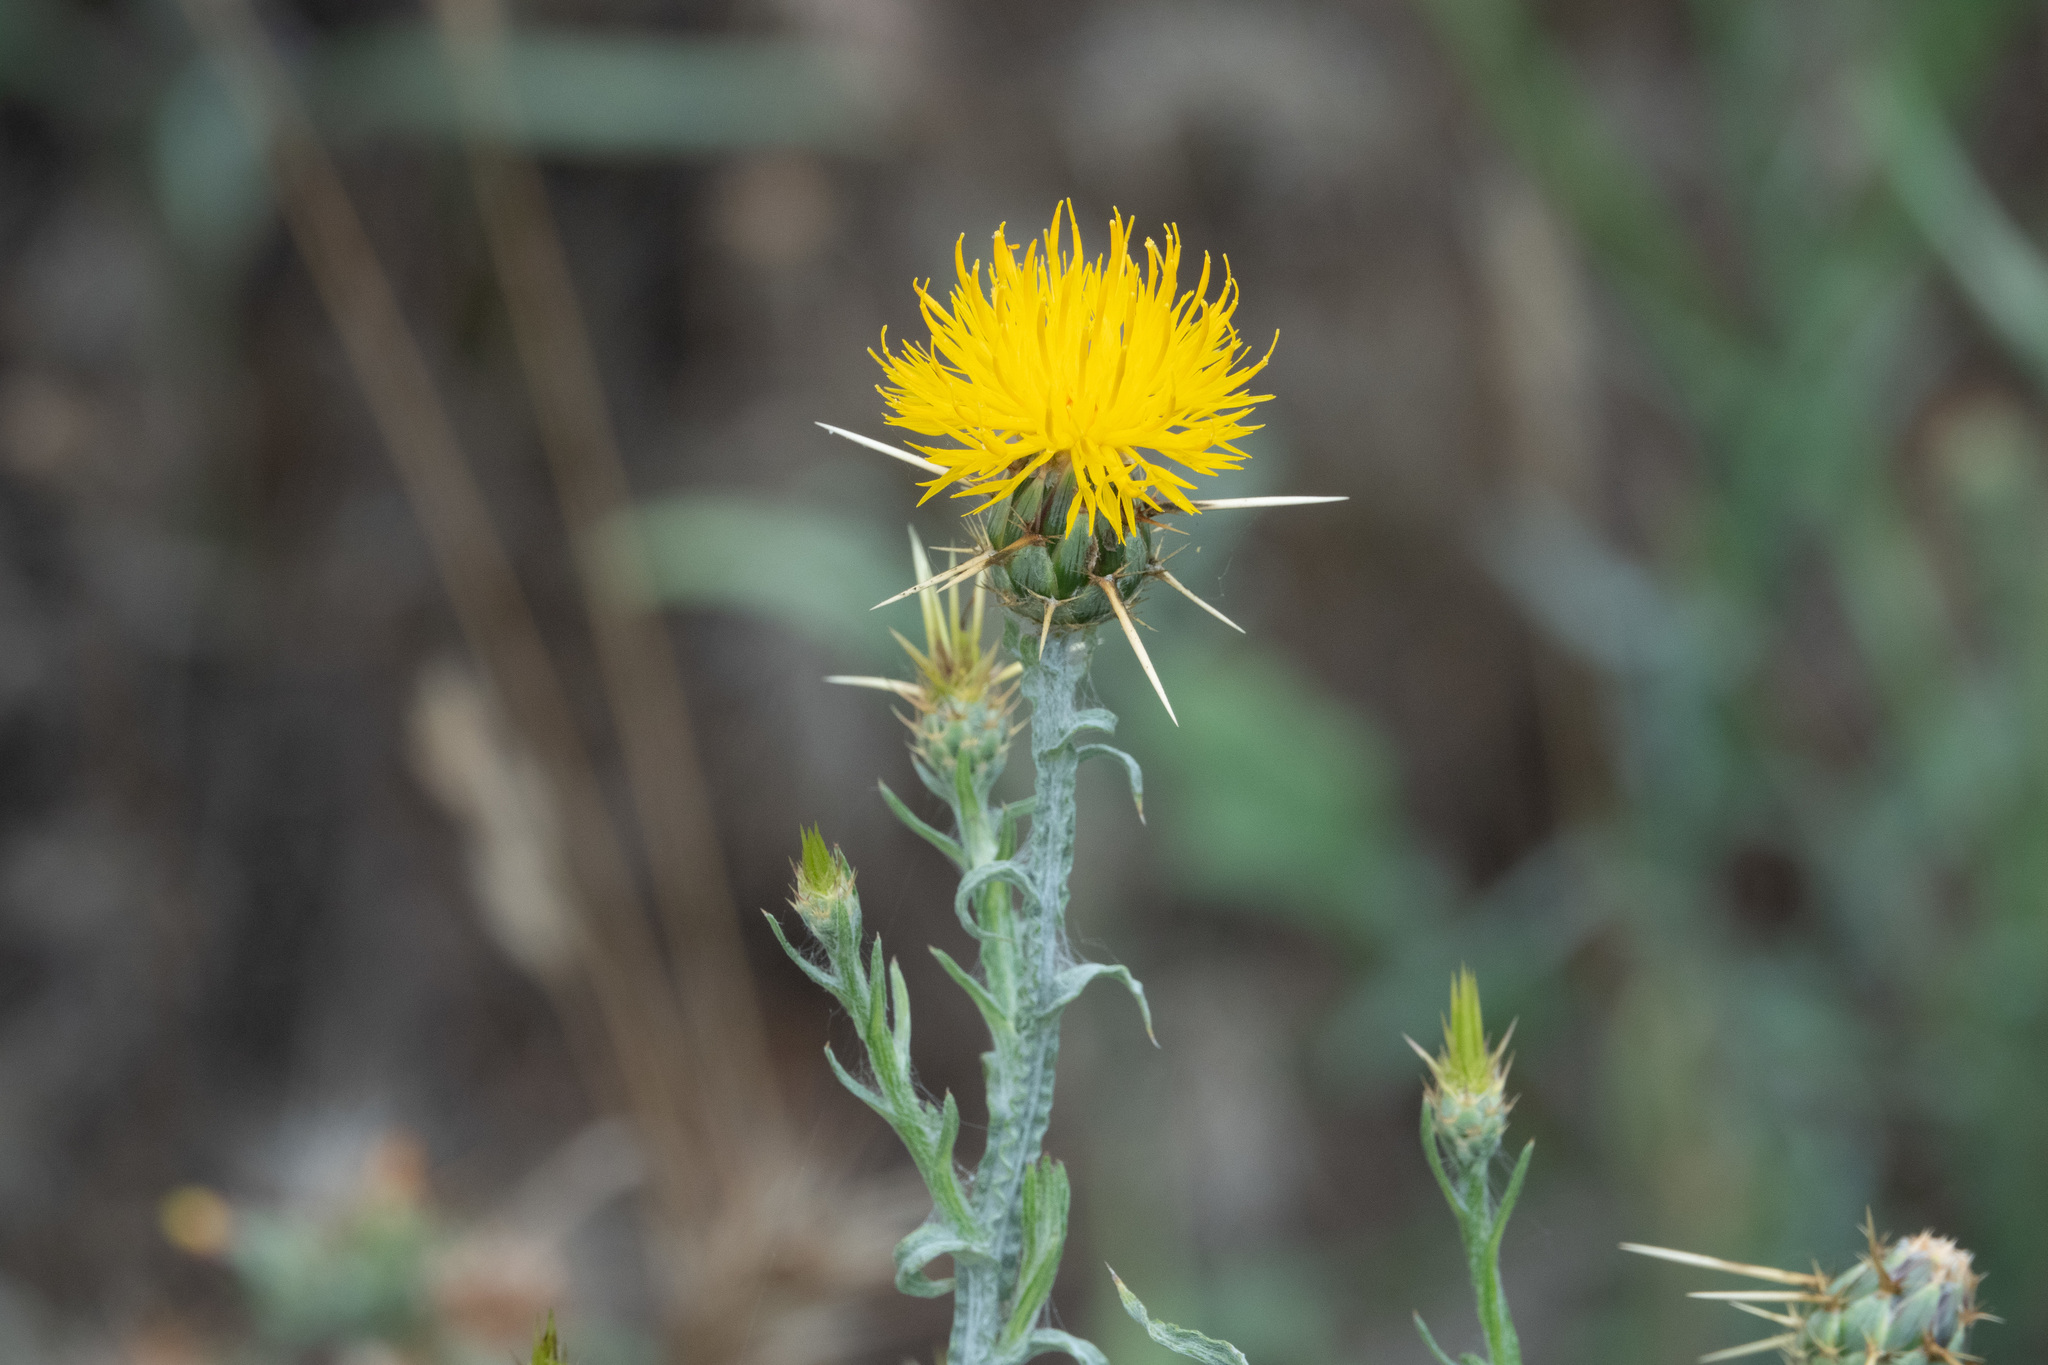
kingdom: Plantae
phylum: Tracheophyta
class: Magnoliopsida
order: Asterales
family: Asteraceae
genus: Centaurea
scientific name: Centaurea solstitialis
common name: Yellow star-thistle
